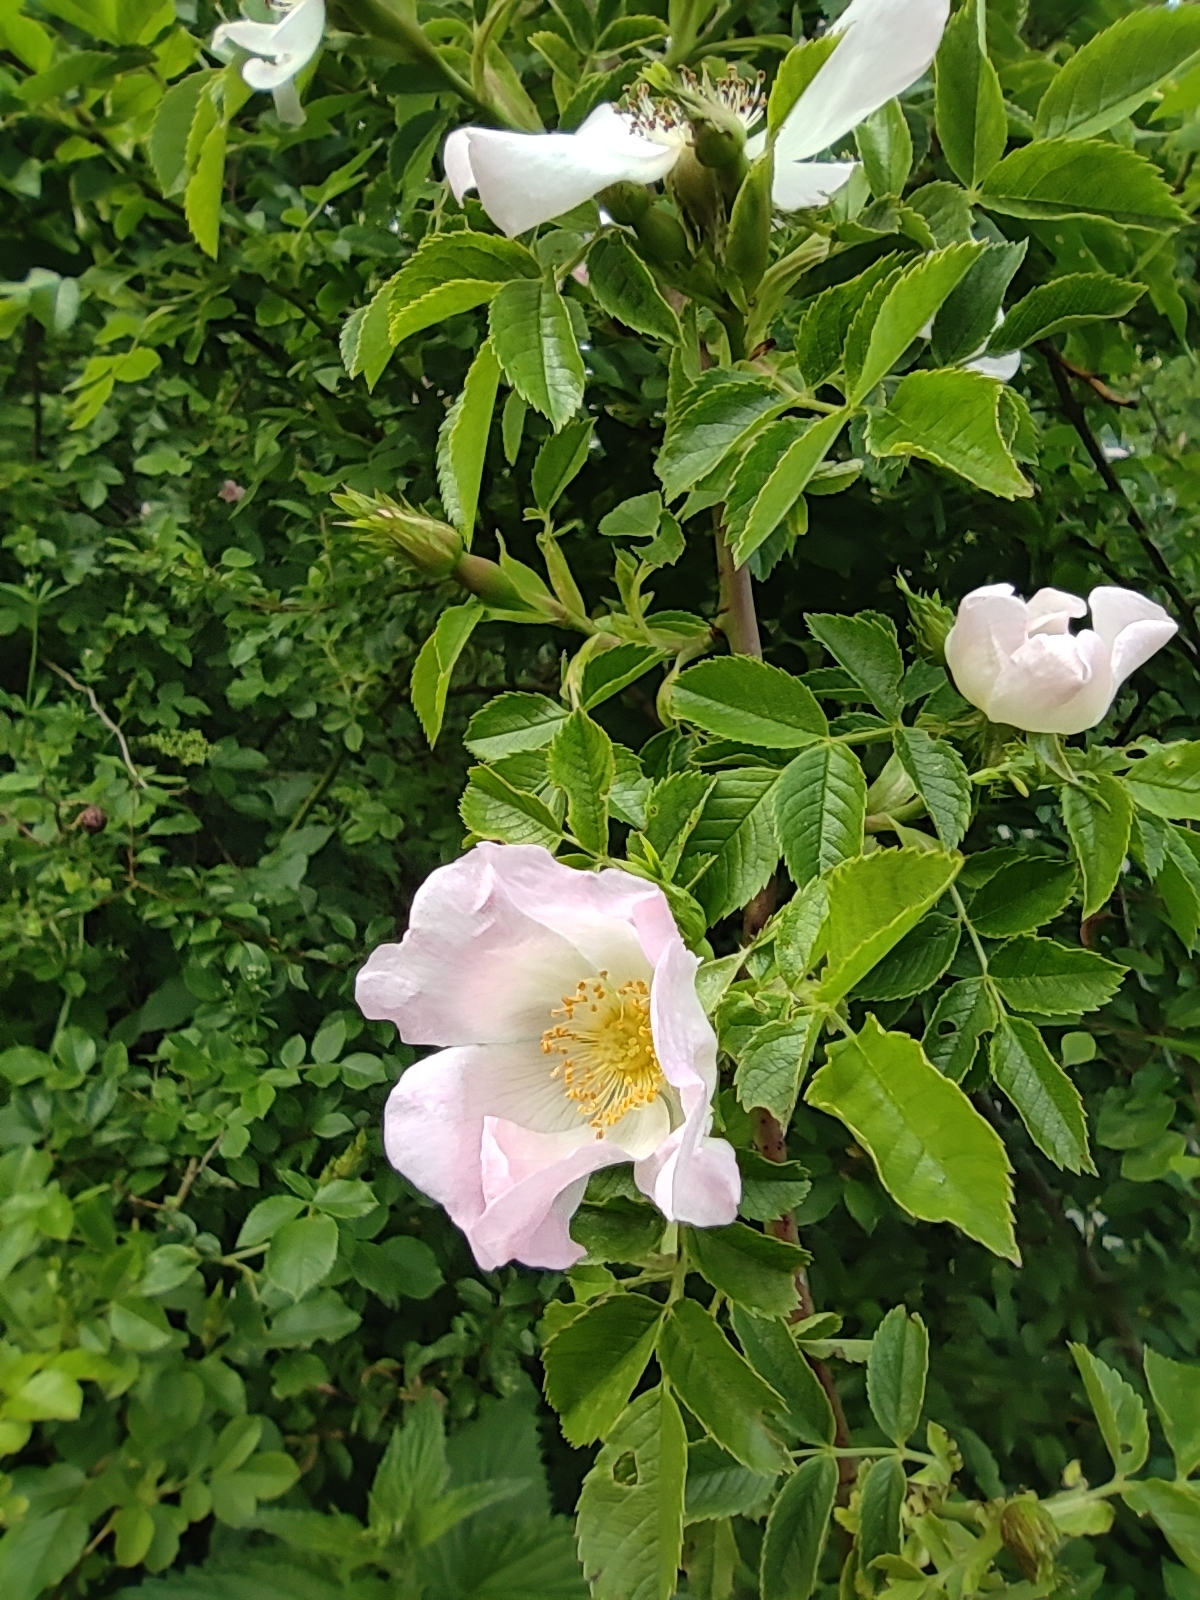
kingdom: Plantae
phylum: Tracheophyta
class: Magnoliopsida
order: Rosales
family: Rosaceae
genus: Rosa
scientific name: Rosa canina
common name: Dog rose
